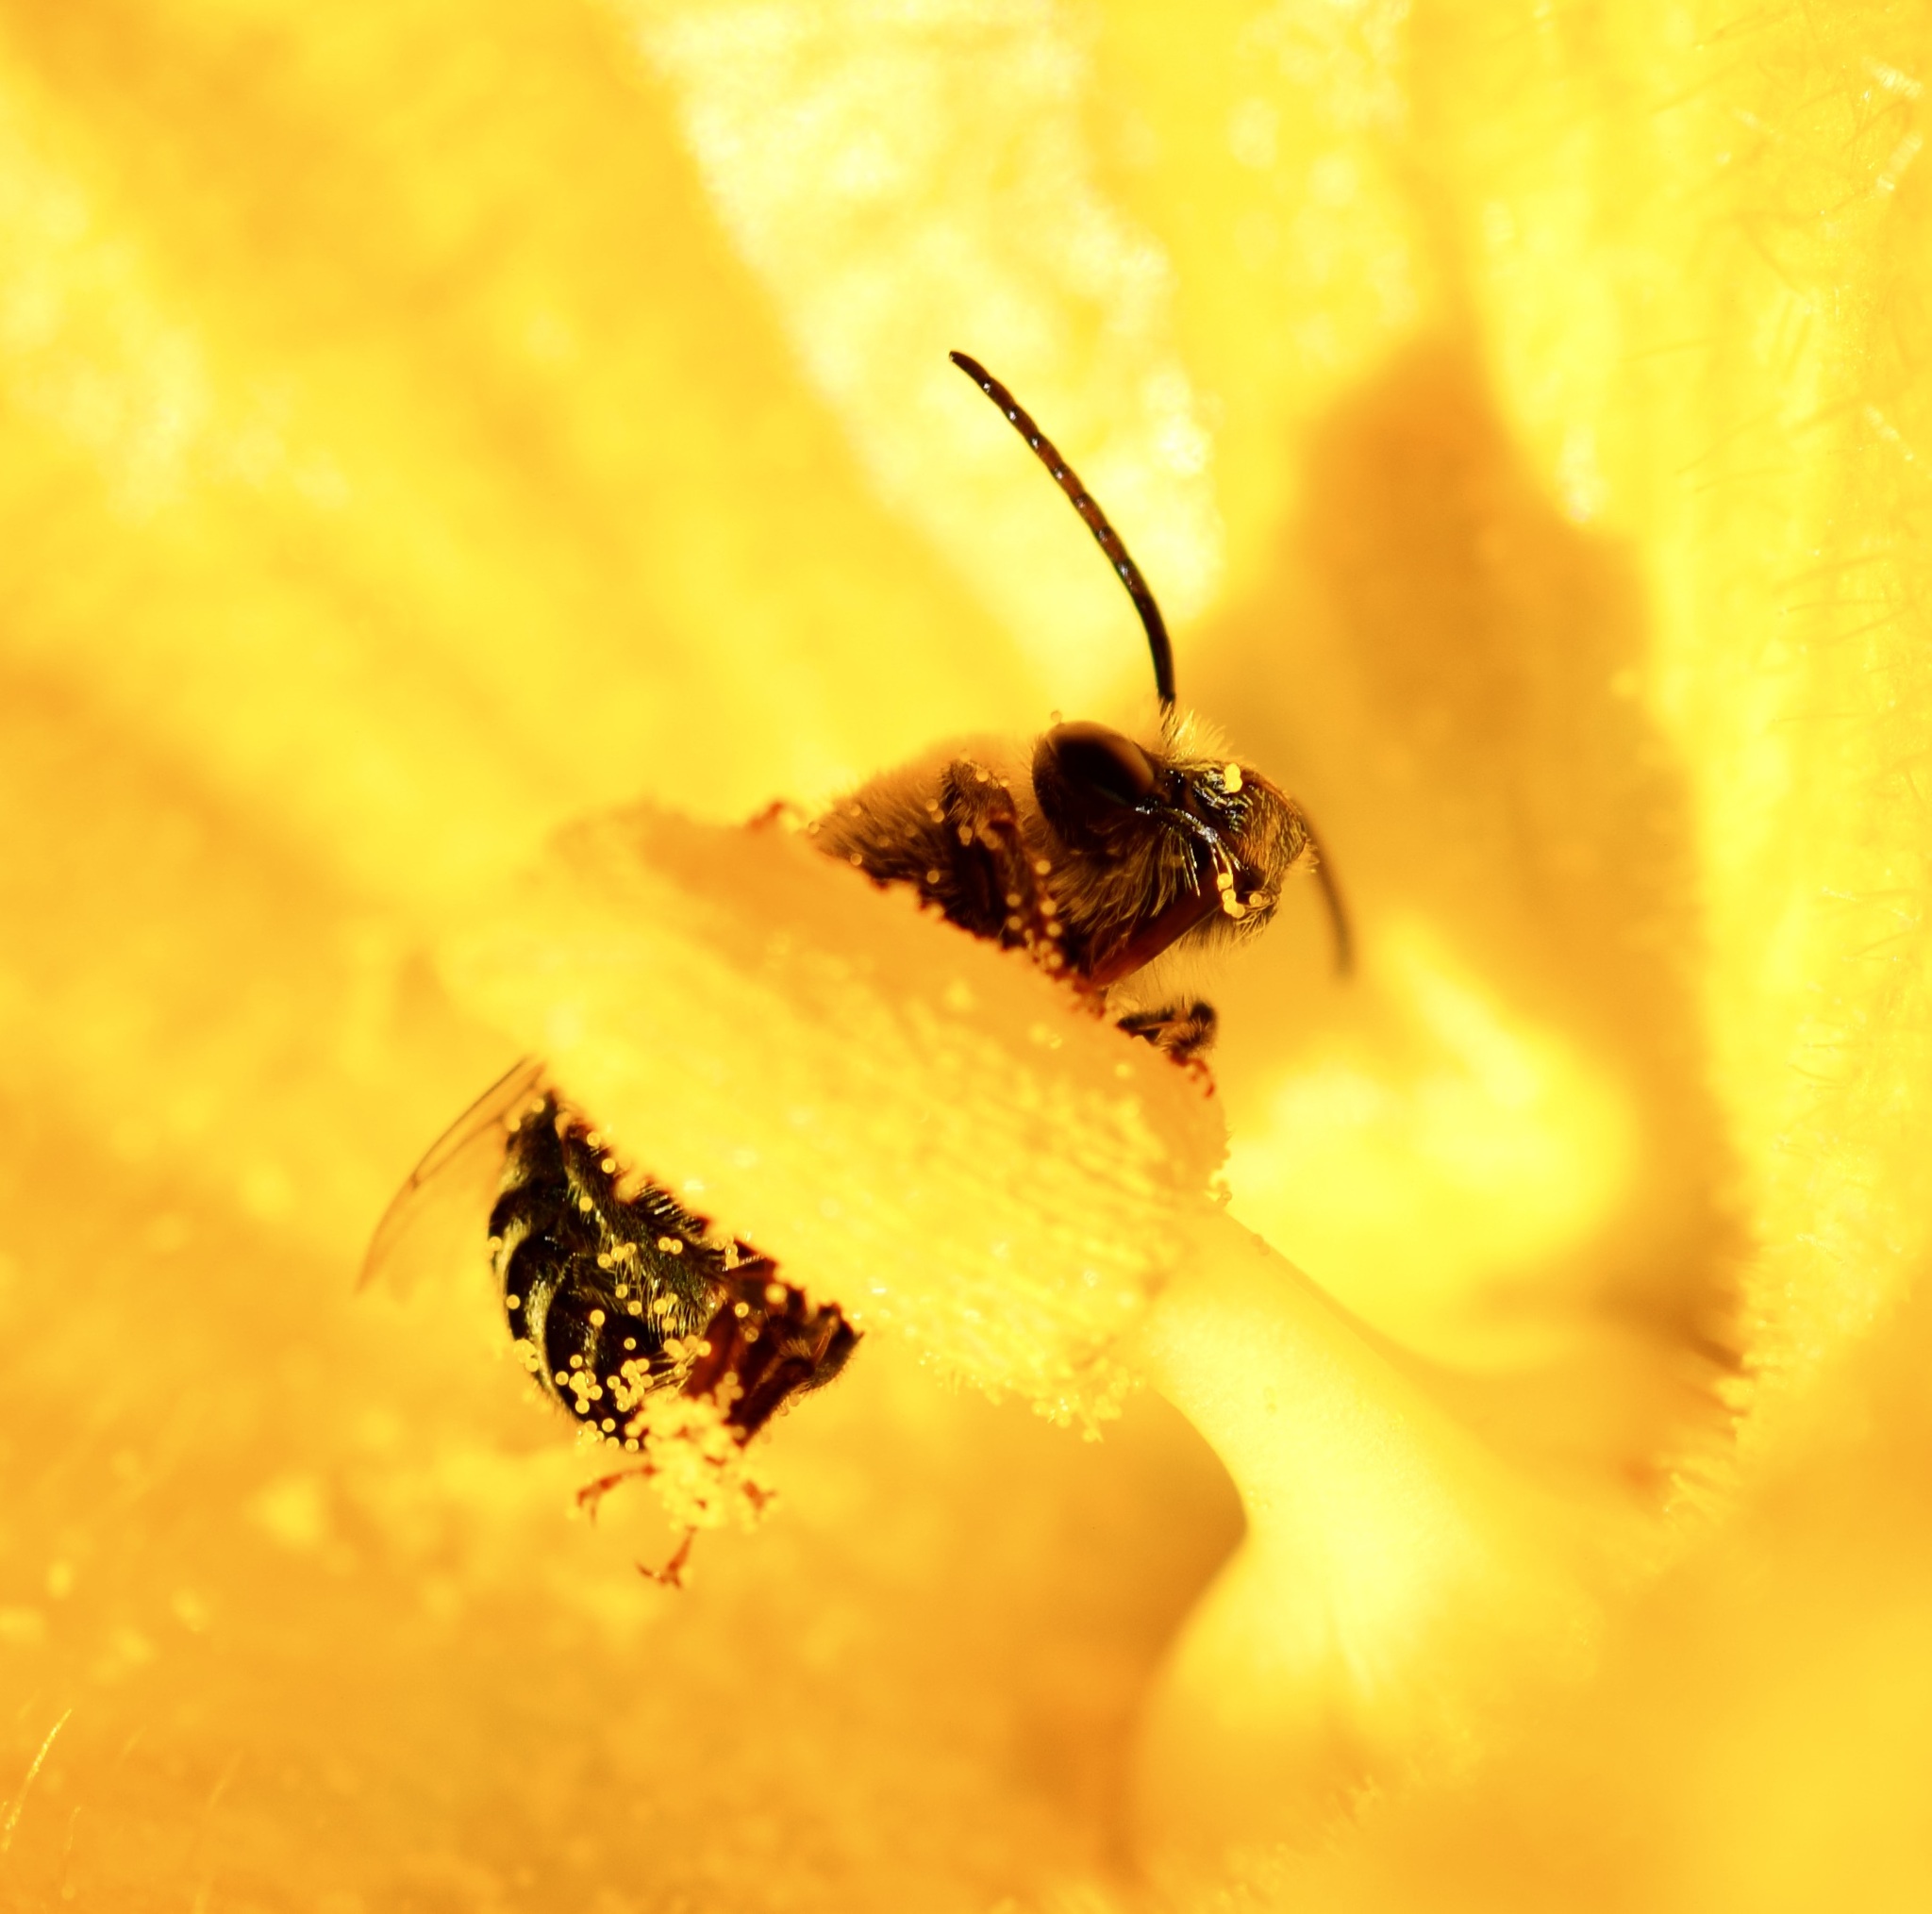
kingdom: Animalia
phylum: Arthropoda
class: Insecta
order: Hymenoptera
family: Apidae
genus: Peponapis
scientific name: Peponapis pruinosa
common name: Pruinose squash bee
